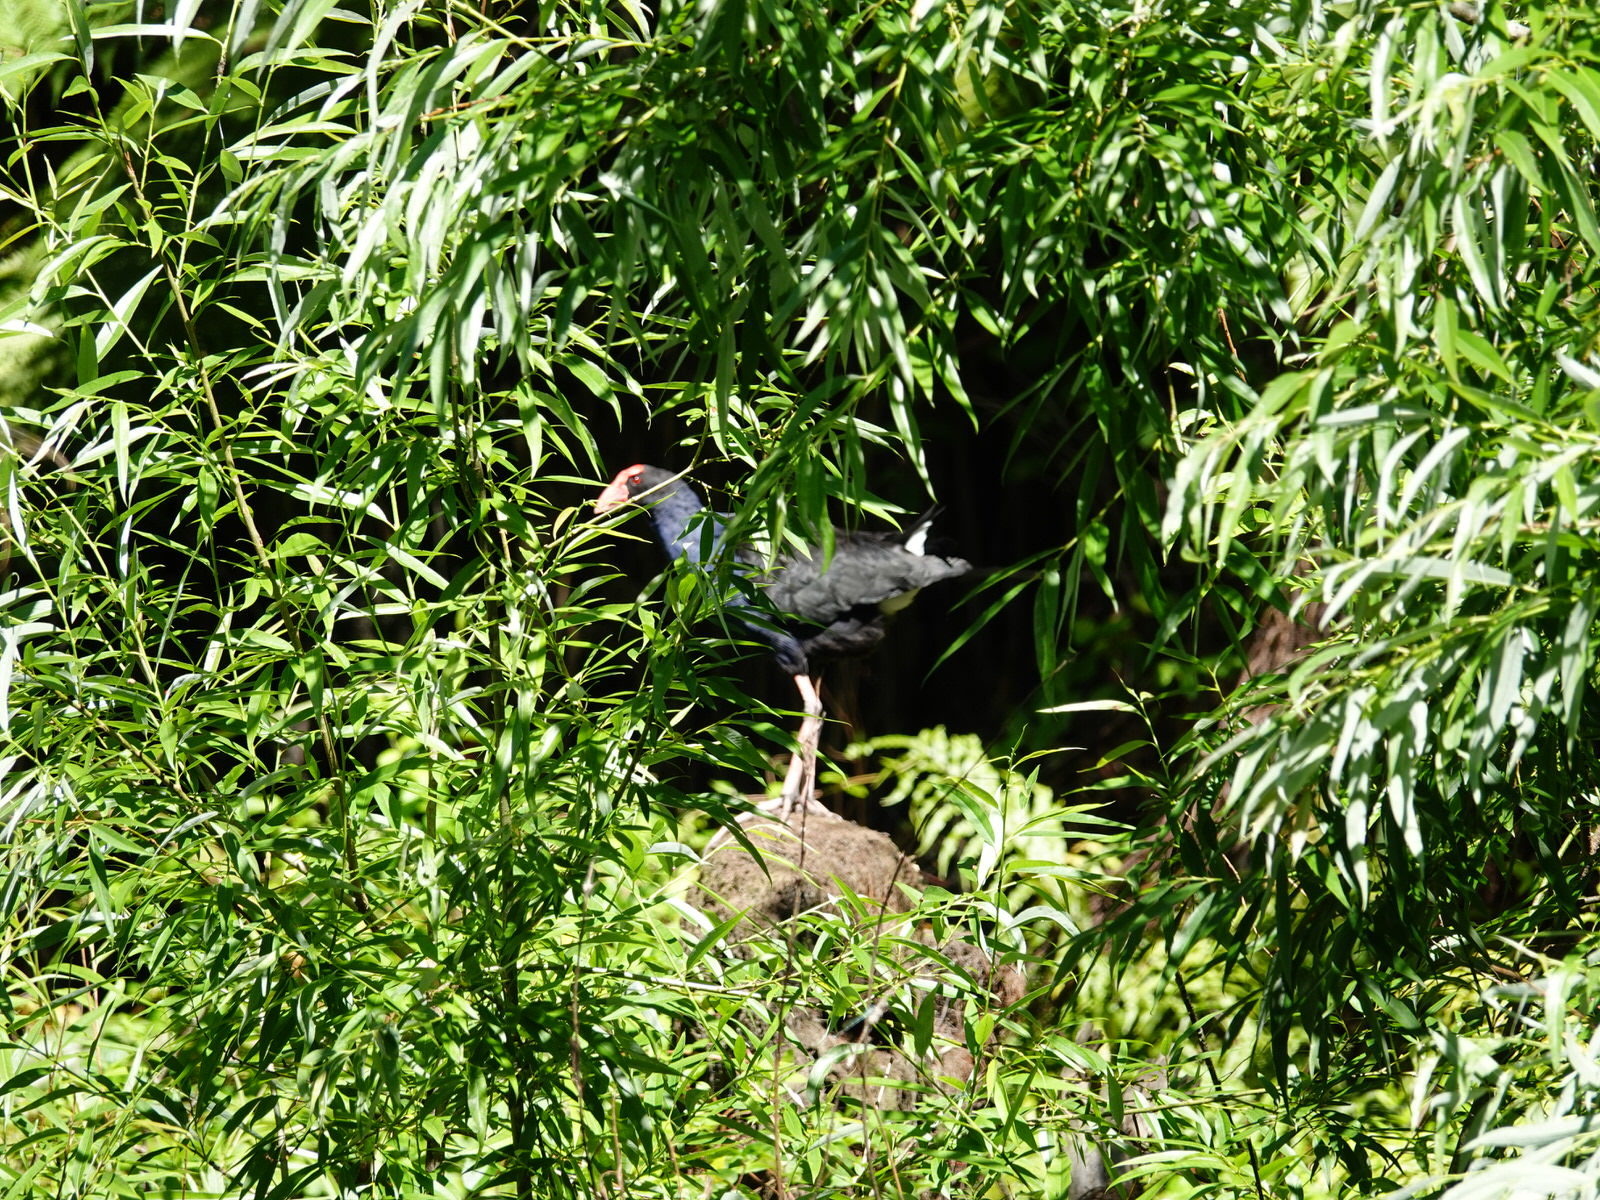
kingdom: Animalia
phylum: Chordata
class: Aves
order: Gruiformes
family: Rallidae
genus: Porphyrio
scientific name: Porphyrio melanotus
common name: Australasian swamphen
